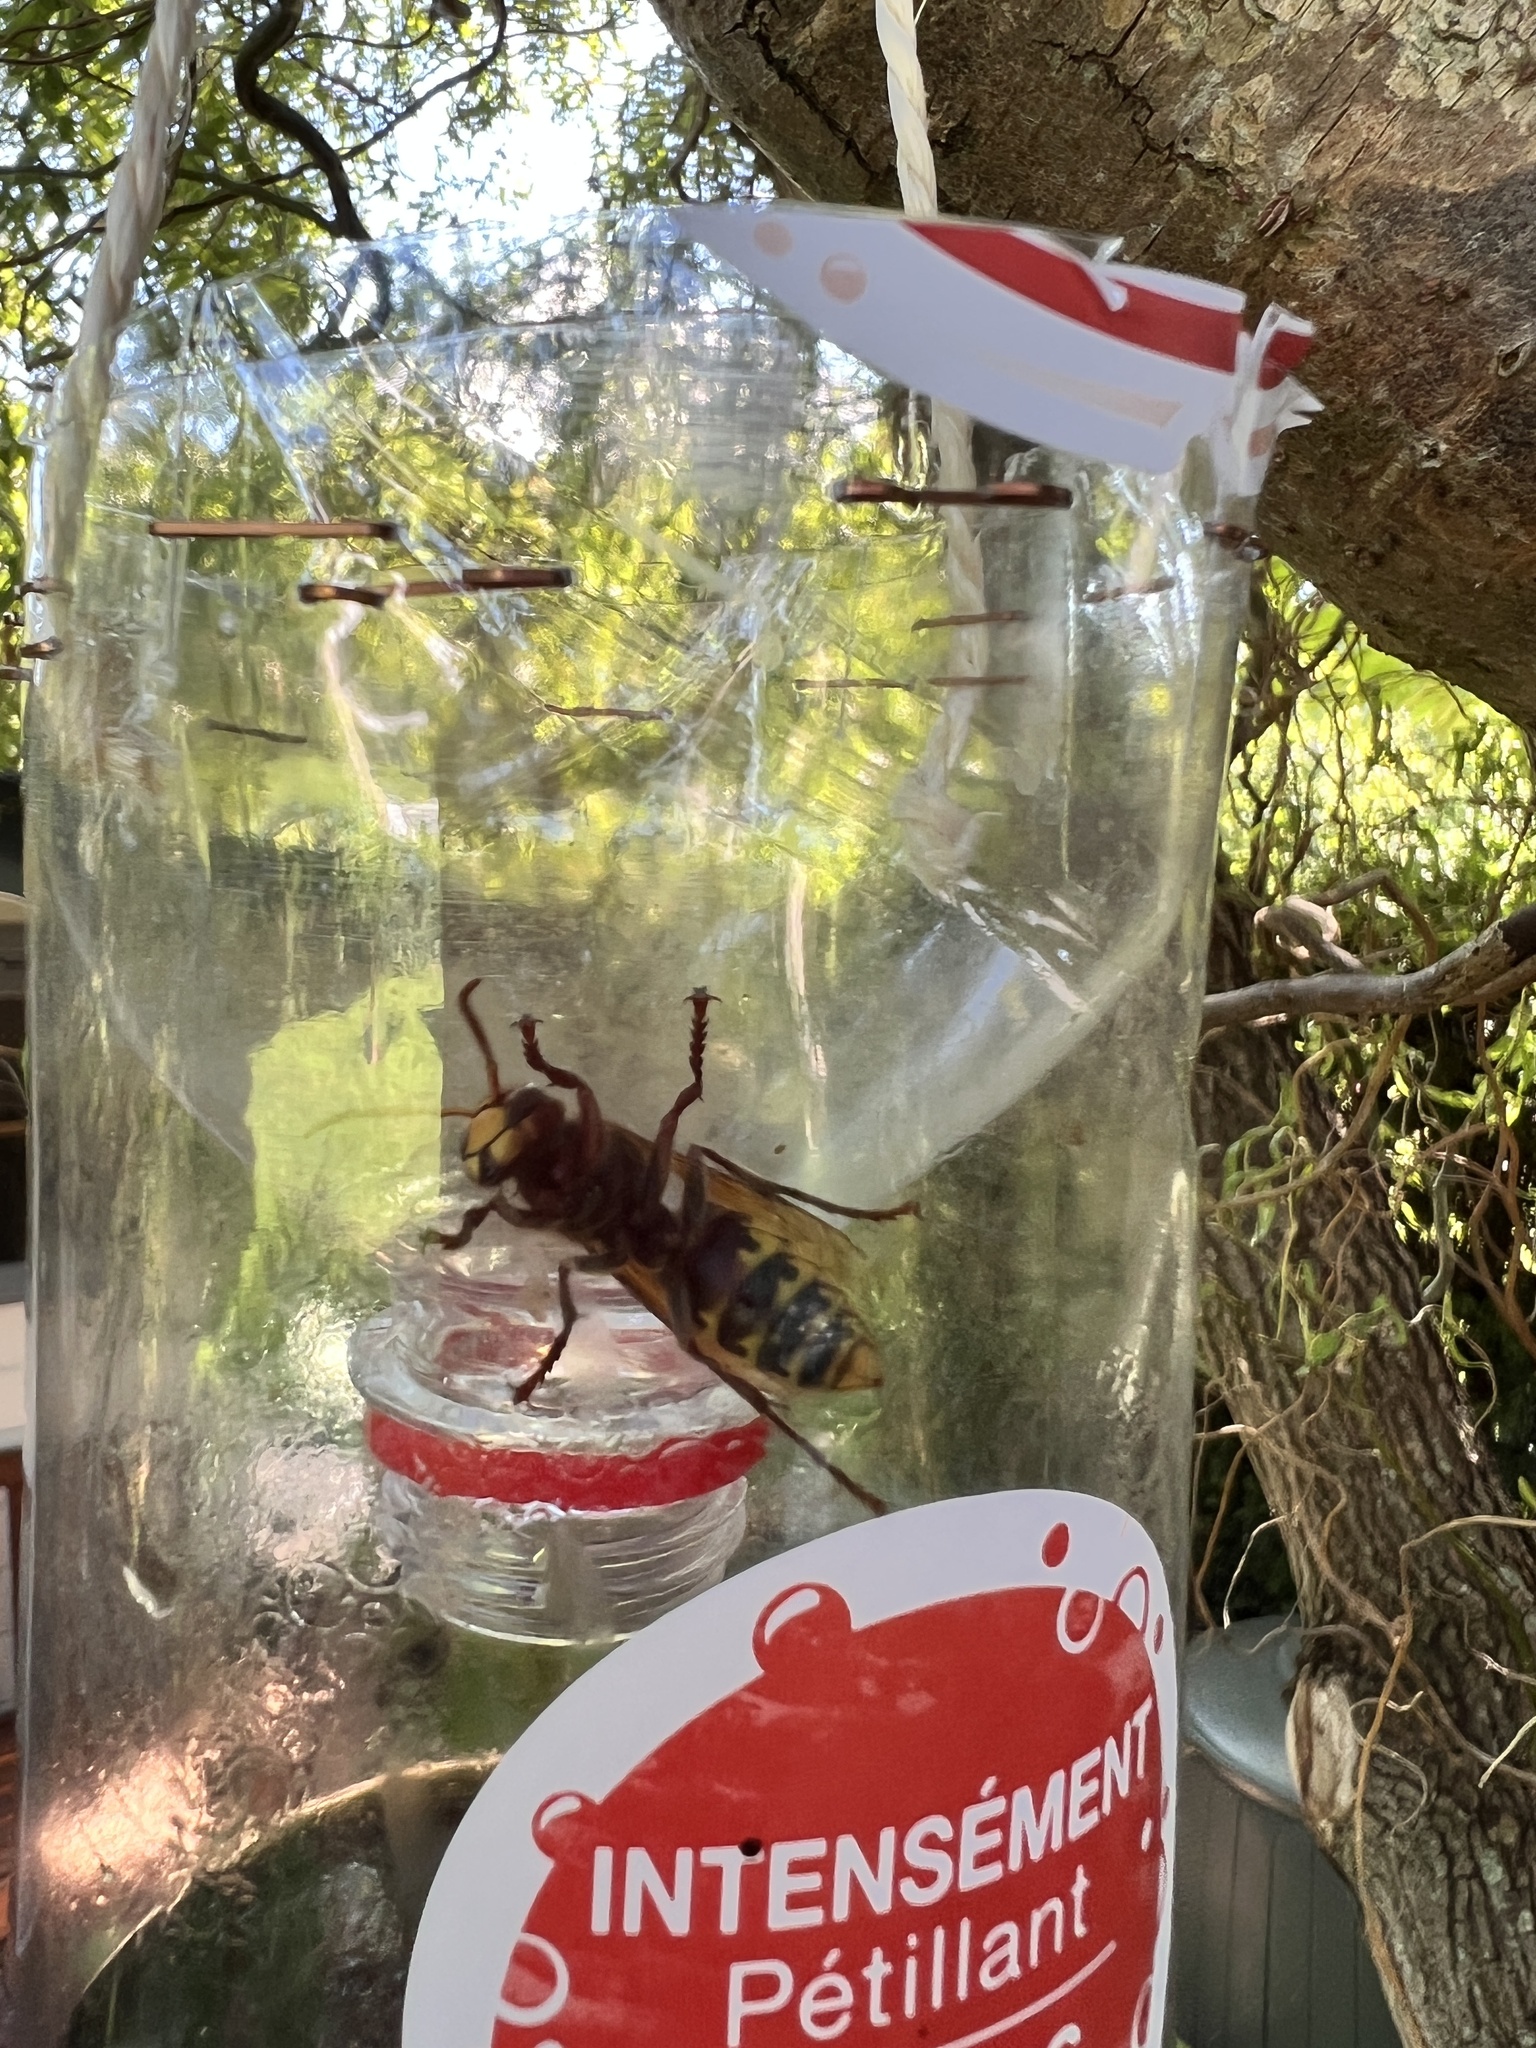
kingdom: Animalia
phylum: Arthropoda
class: Insecta
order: Hymenoptera
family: Vespidae
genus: Vespa
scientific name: Vespa crabro
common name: Hornet
